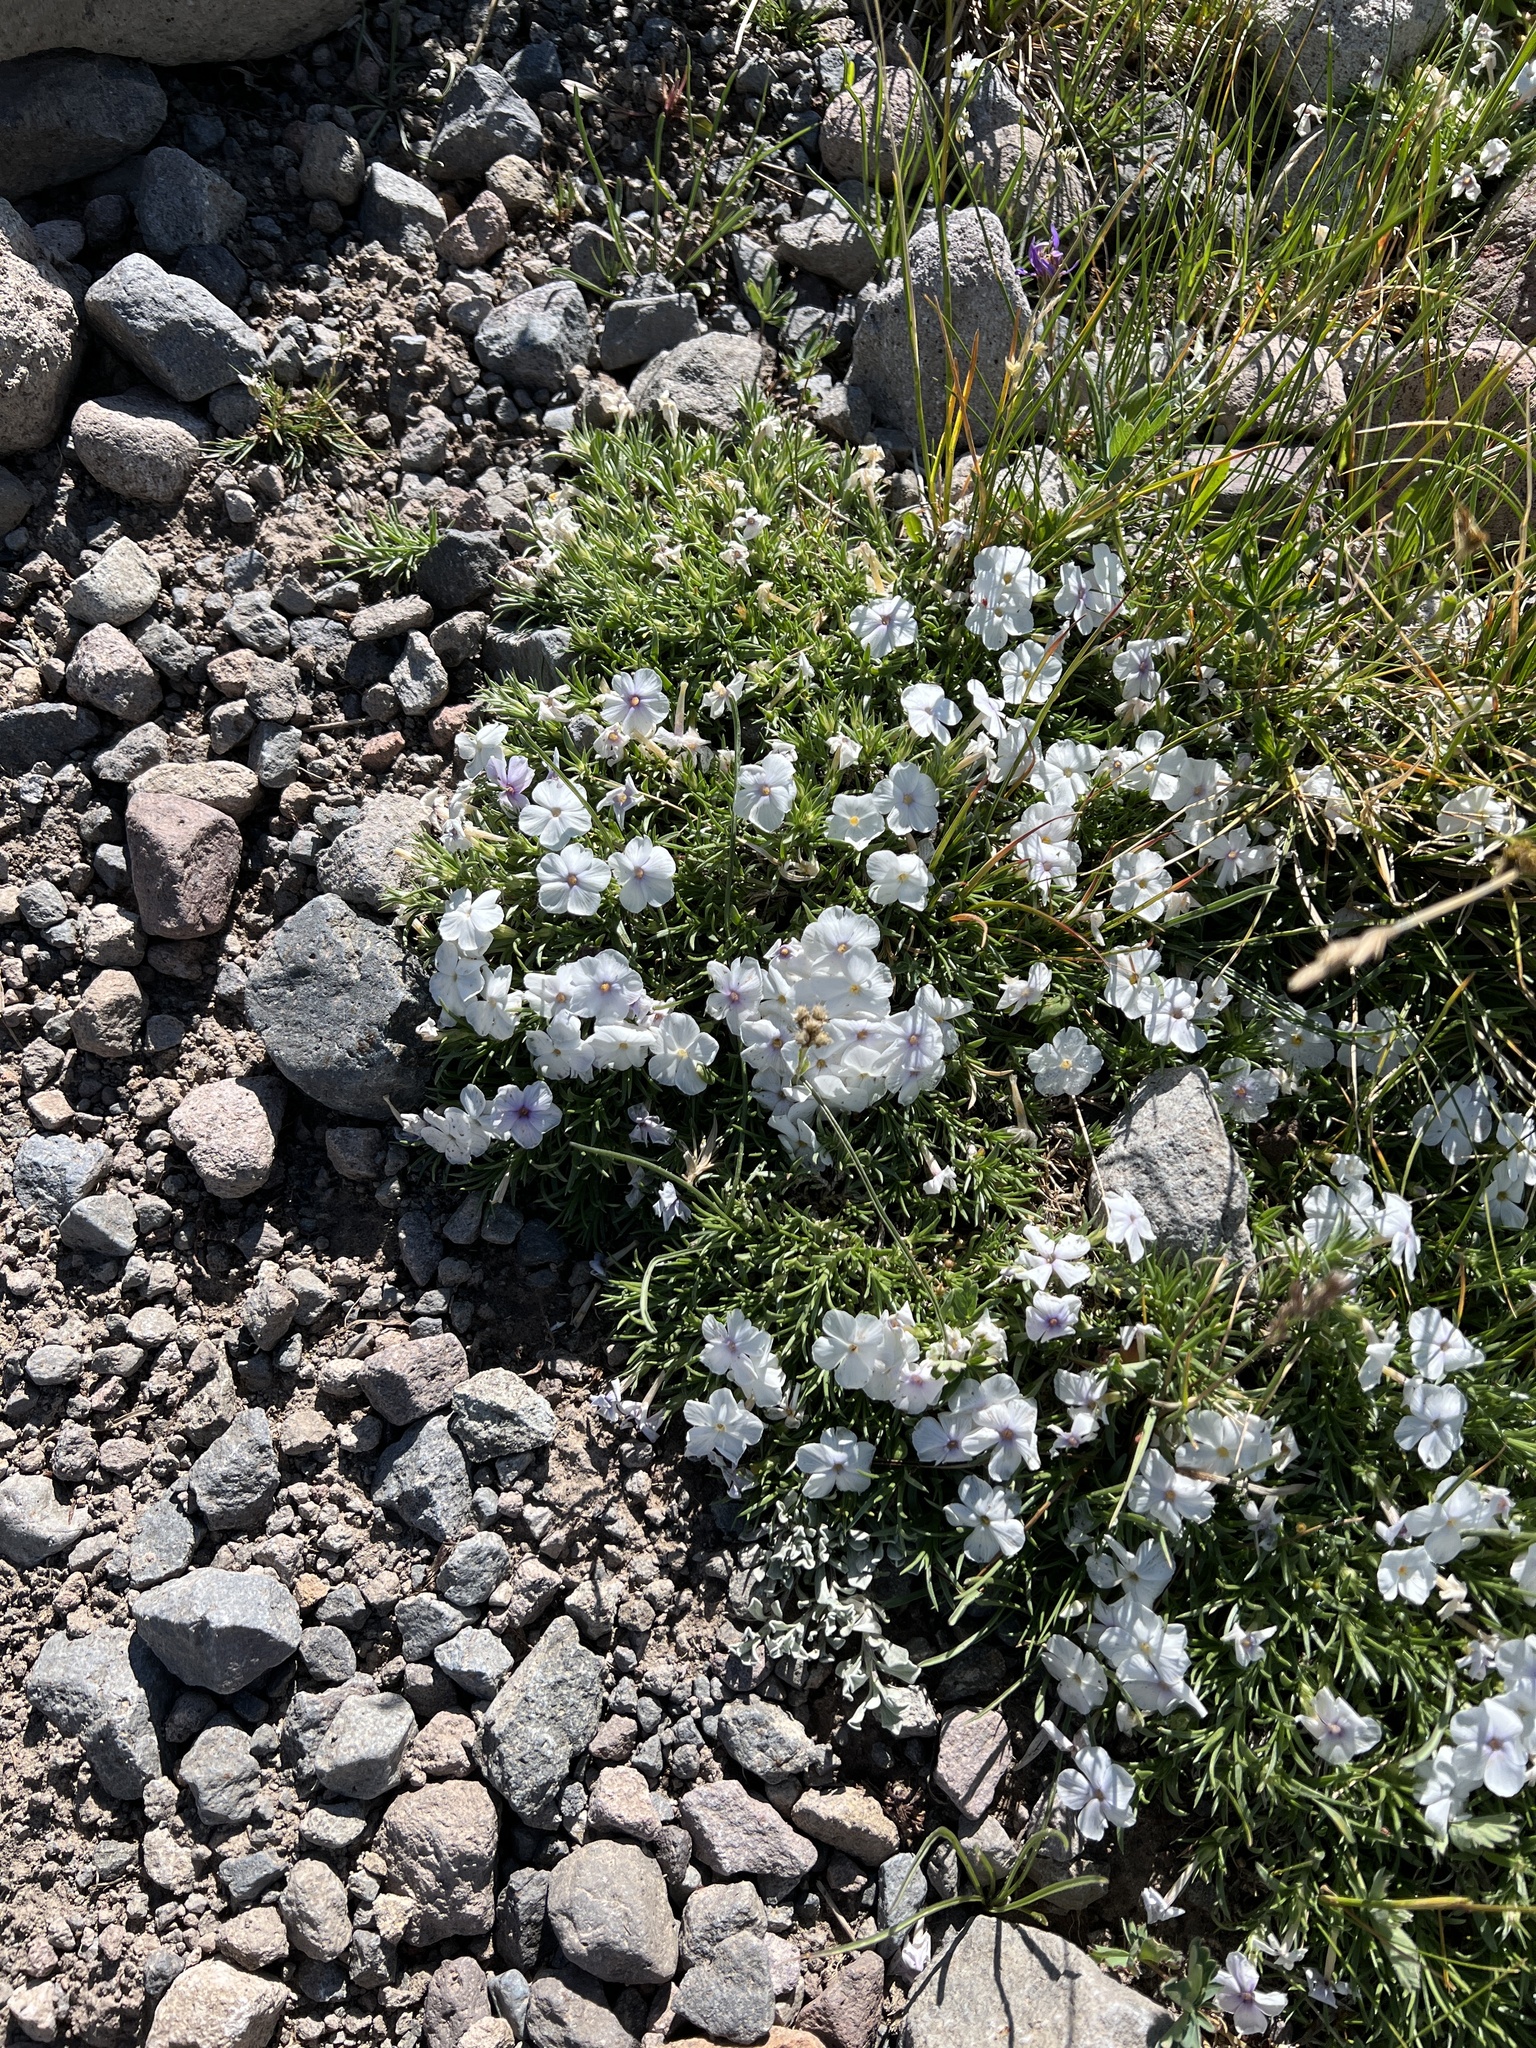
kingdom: Plantae
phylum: Tracheophyta
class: Magnoliopsida
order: Ericales
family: Polemoniaceae
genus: Phlox
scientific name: Phlox multiflora
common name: Rocky mountain phlox
